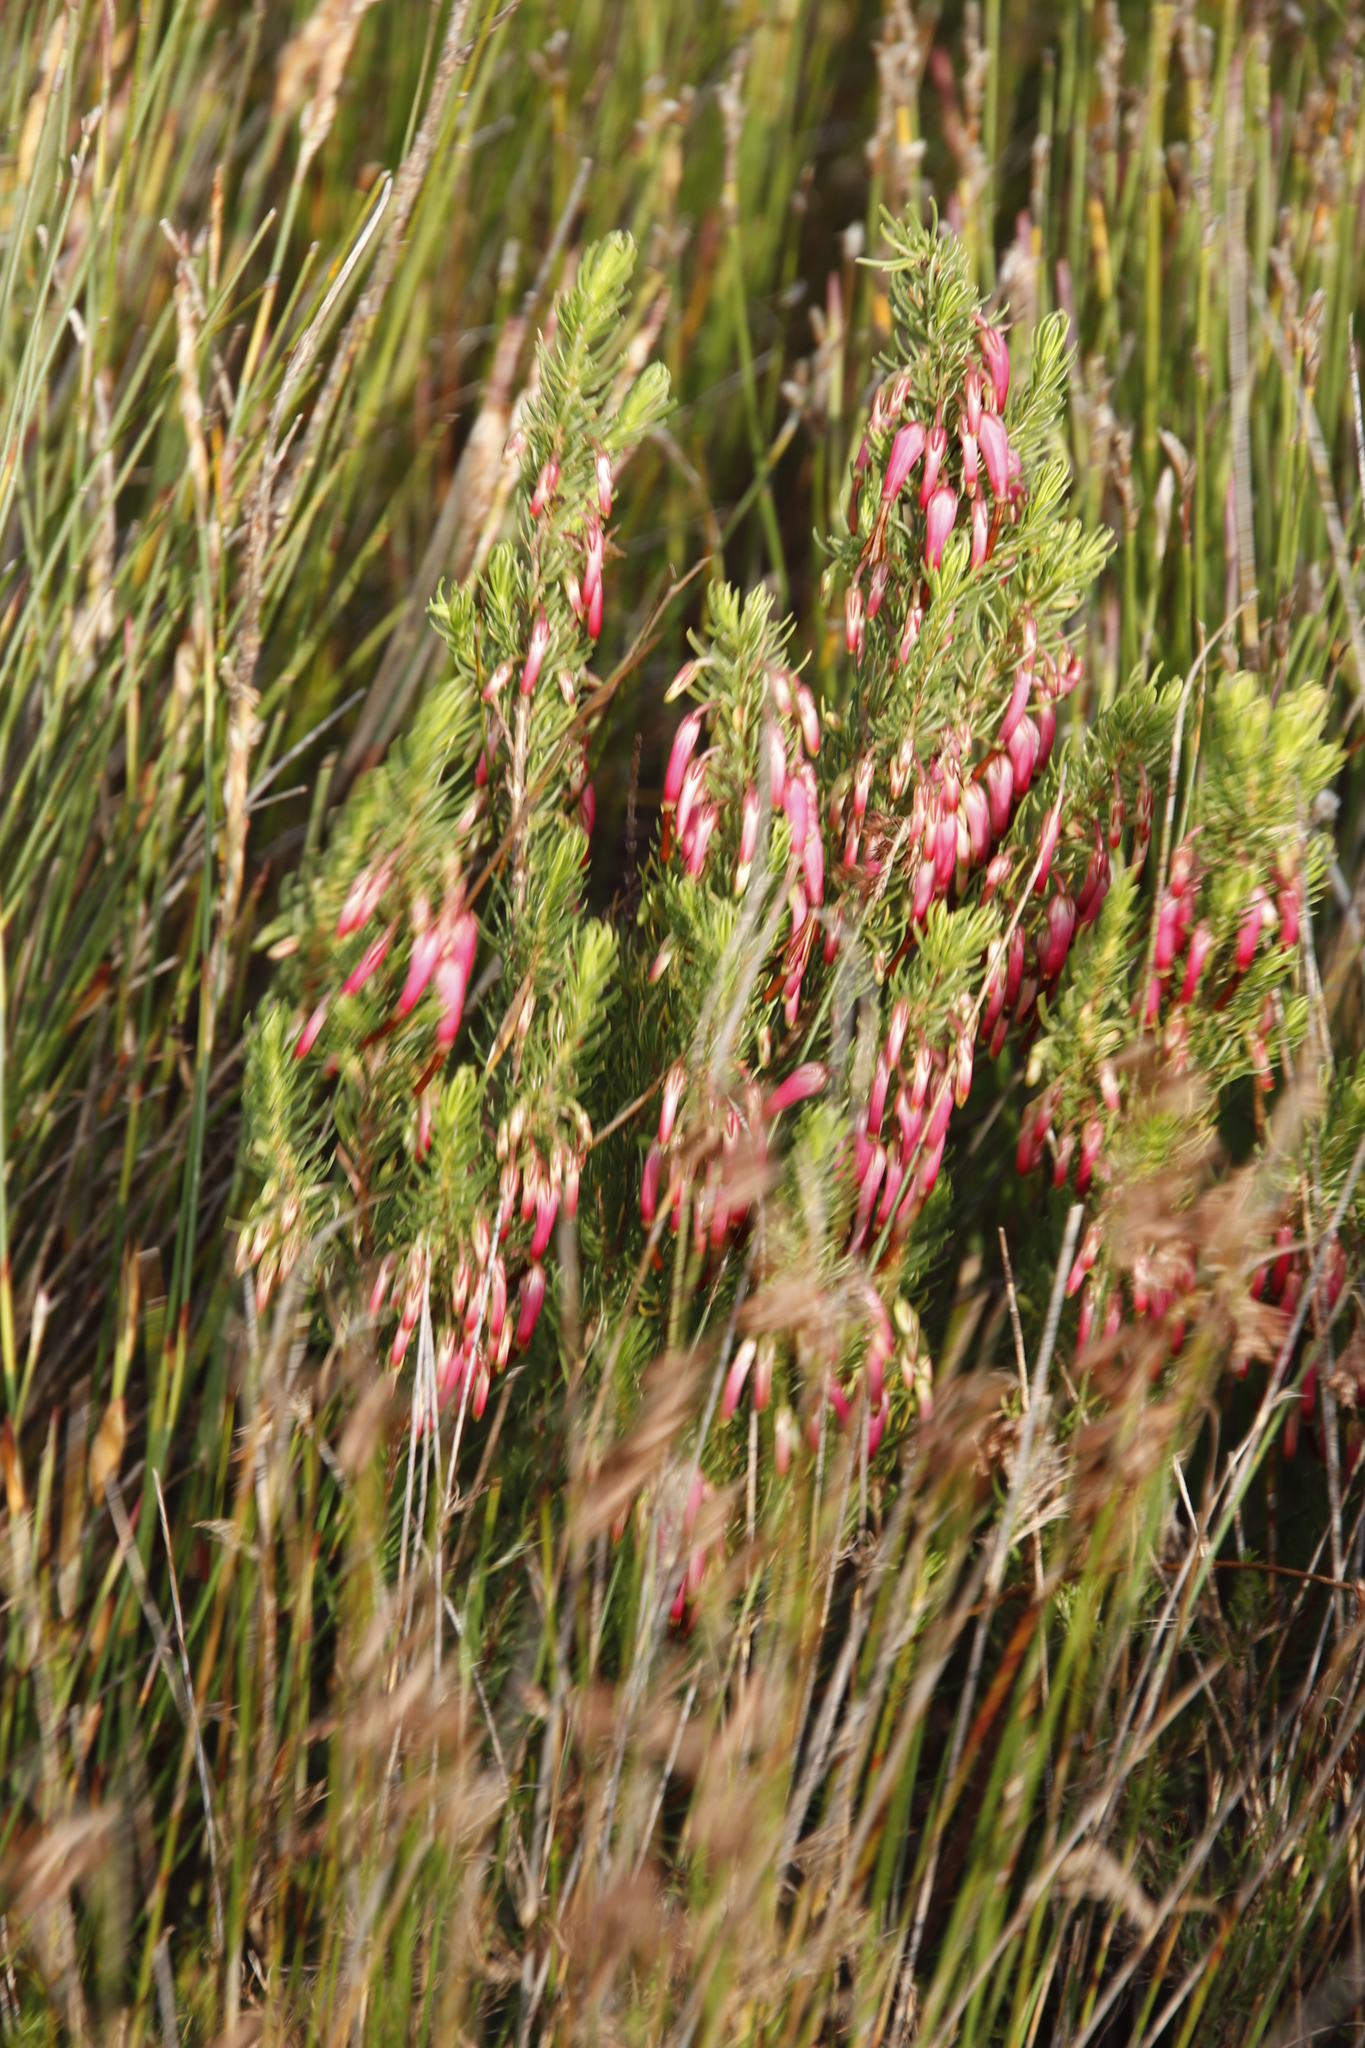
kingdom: Plantae
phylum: Tracheophyta
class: Magnoliopsida
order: Ericales
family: Ericaceae
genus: Erica
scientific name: Erica plukenetii
